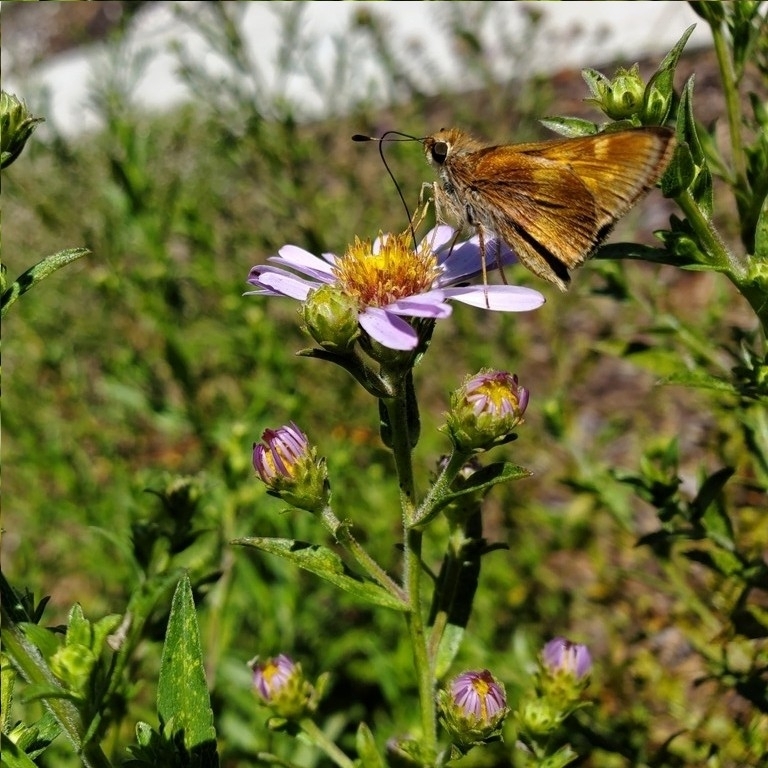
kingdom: Animalia
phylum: Arthropoda
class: Insecta
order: Lepidoptera
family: Hesperiidae
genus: Lon
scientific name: Lon melane
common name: Umber skipper
